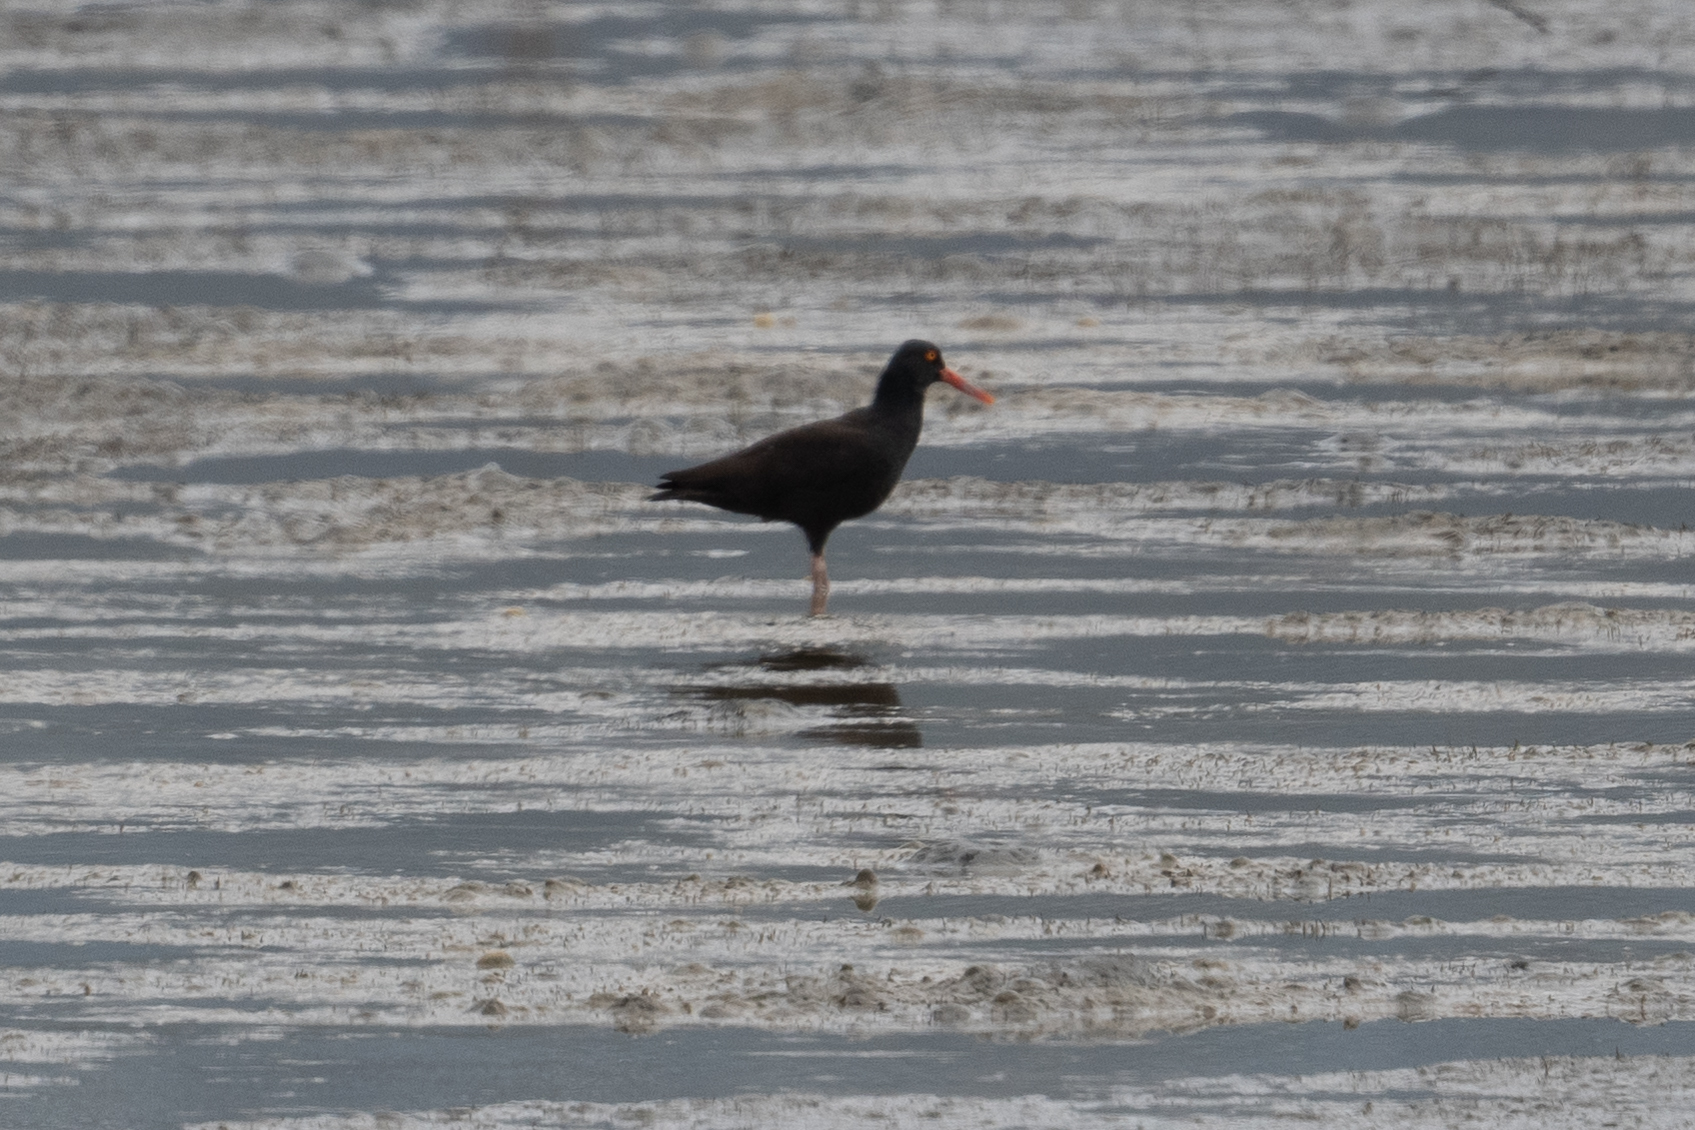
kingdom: Animalia
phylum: Chordata
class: Aves
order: Charadriiformes
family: Haematopodidae
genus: Haematopus
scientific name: Haematopus bachmani
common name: Black oystercatcher
